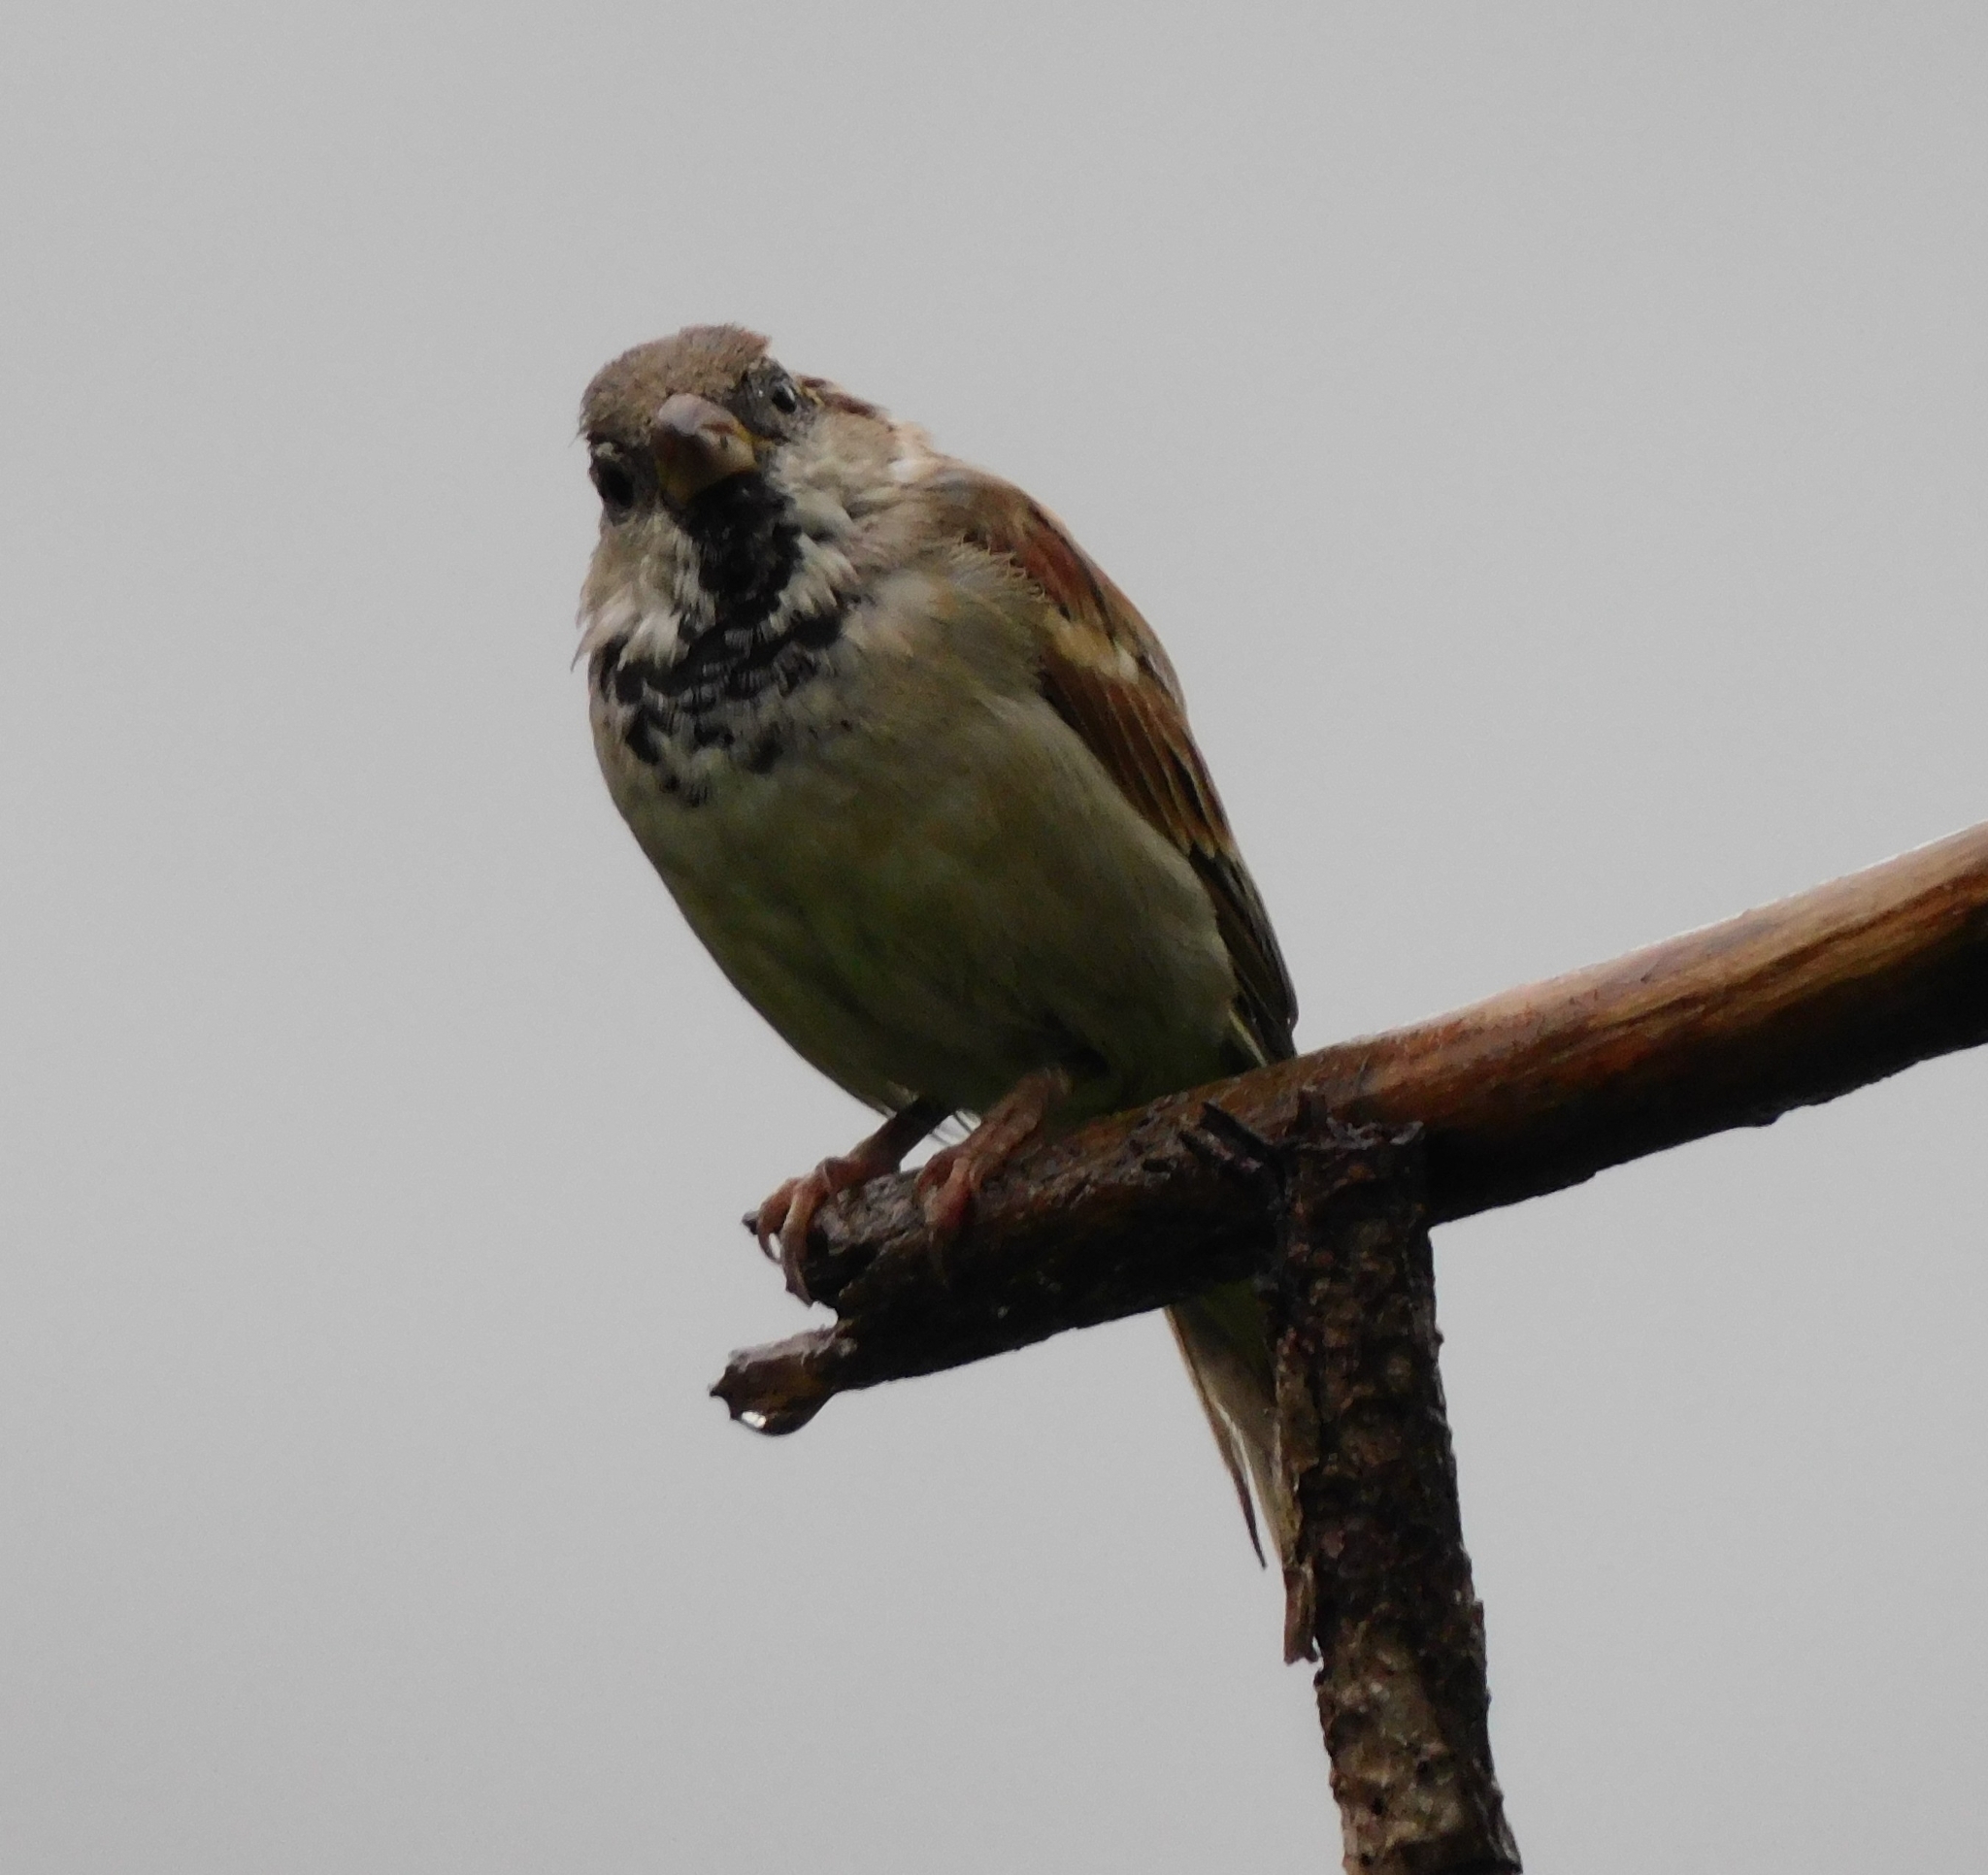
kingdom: Animalia
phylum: Chordata
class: Aves
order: Passeriformes
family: Passeridae
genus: Passer
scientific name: Passer domesticus
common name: House sparrow
